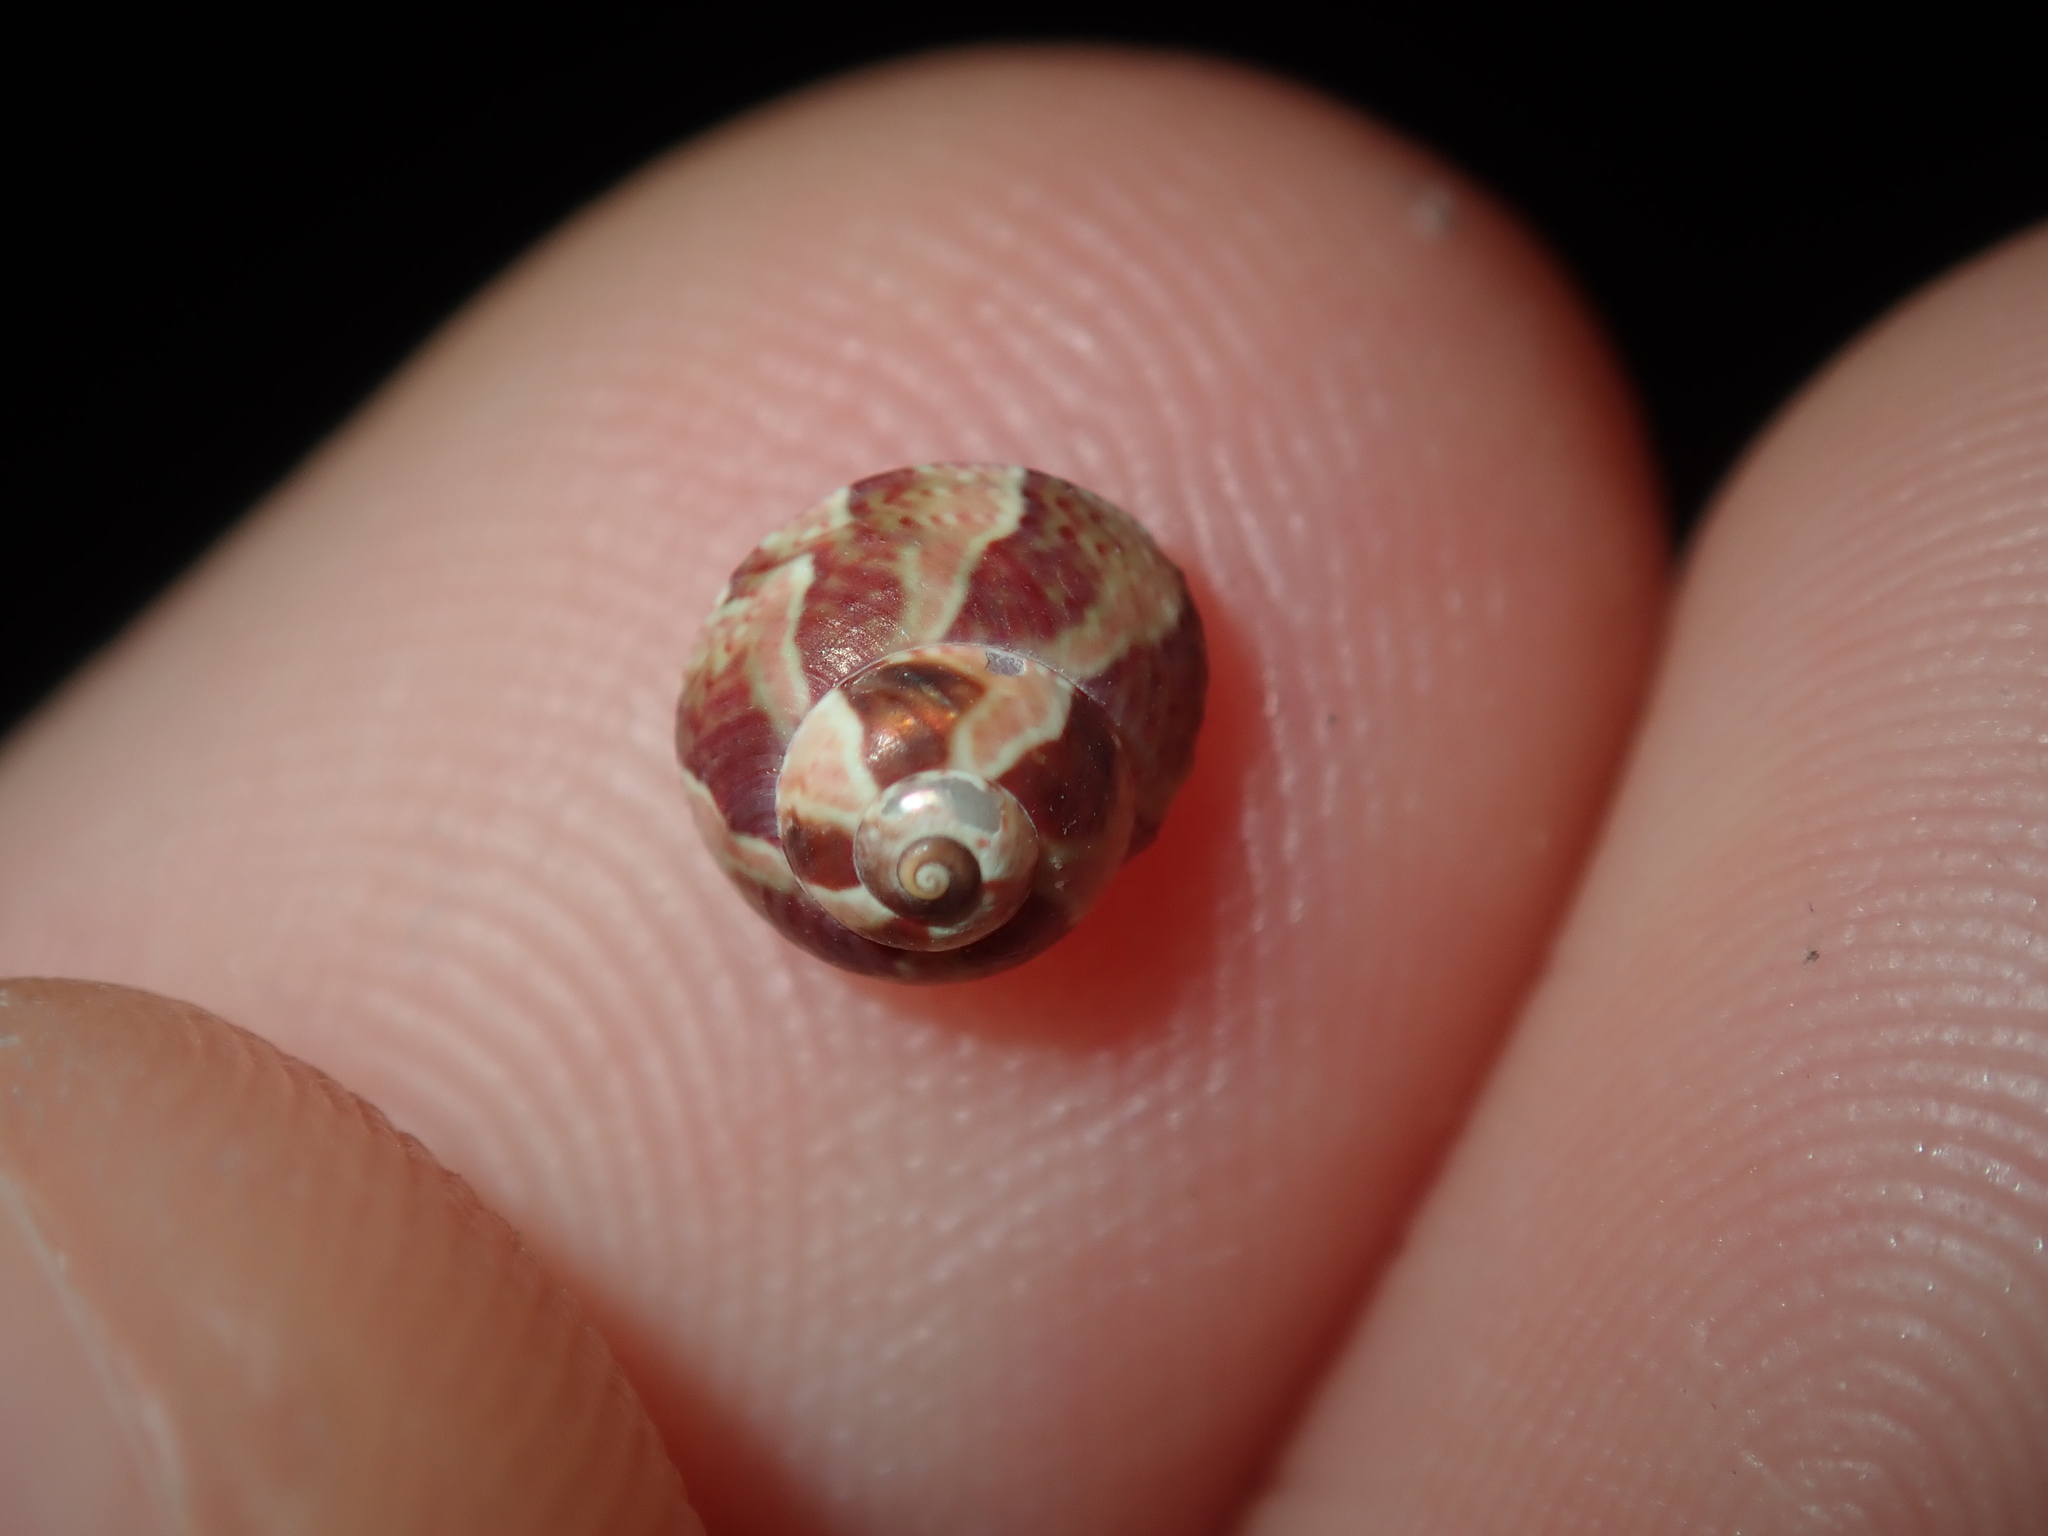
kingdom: Animalia
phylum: Mollusca
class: Gastropoda
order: Trochida
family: Trochidae
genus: Cantharidella
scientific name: Cantharidella picturata
